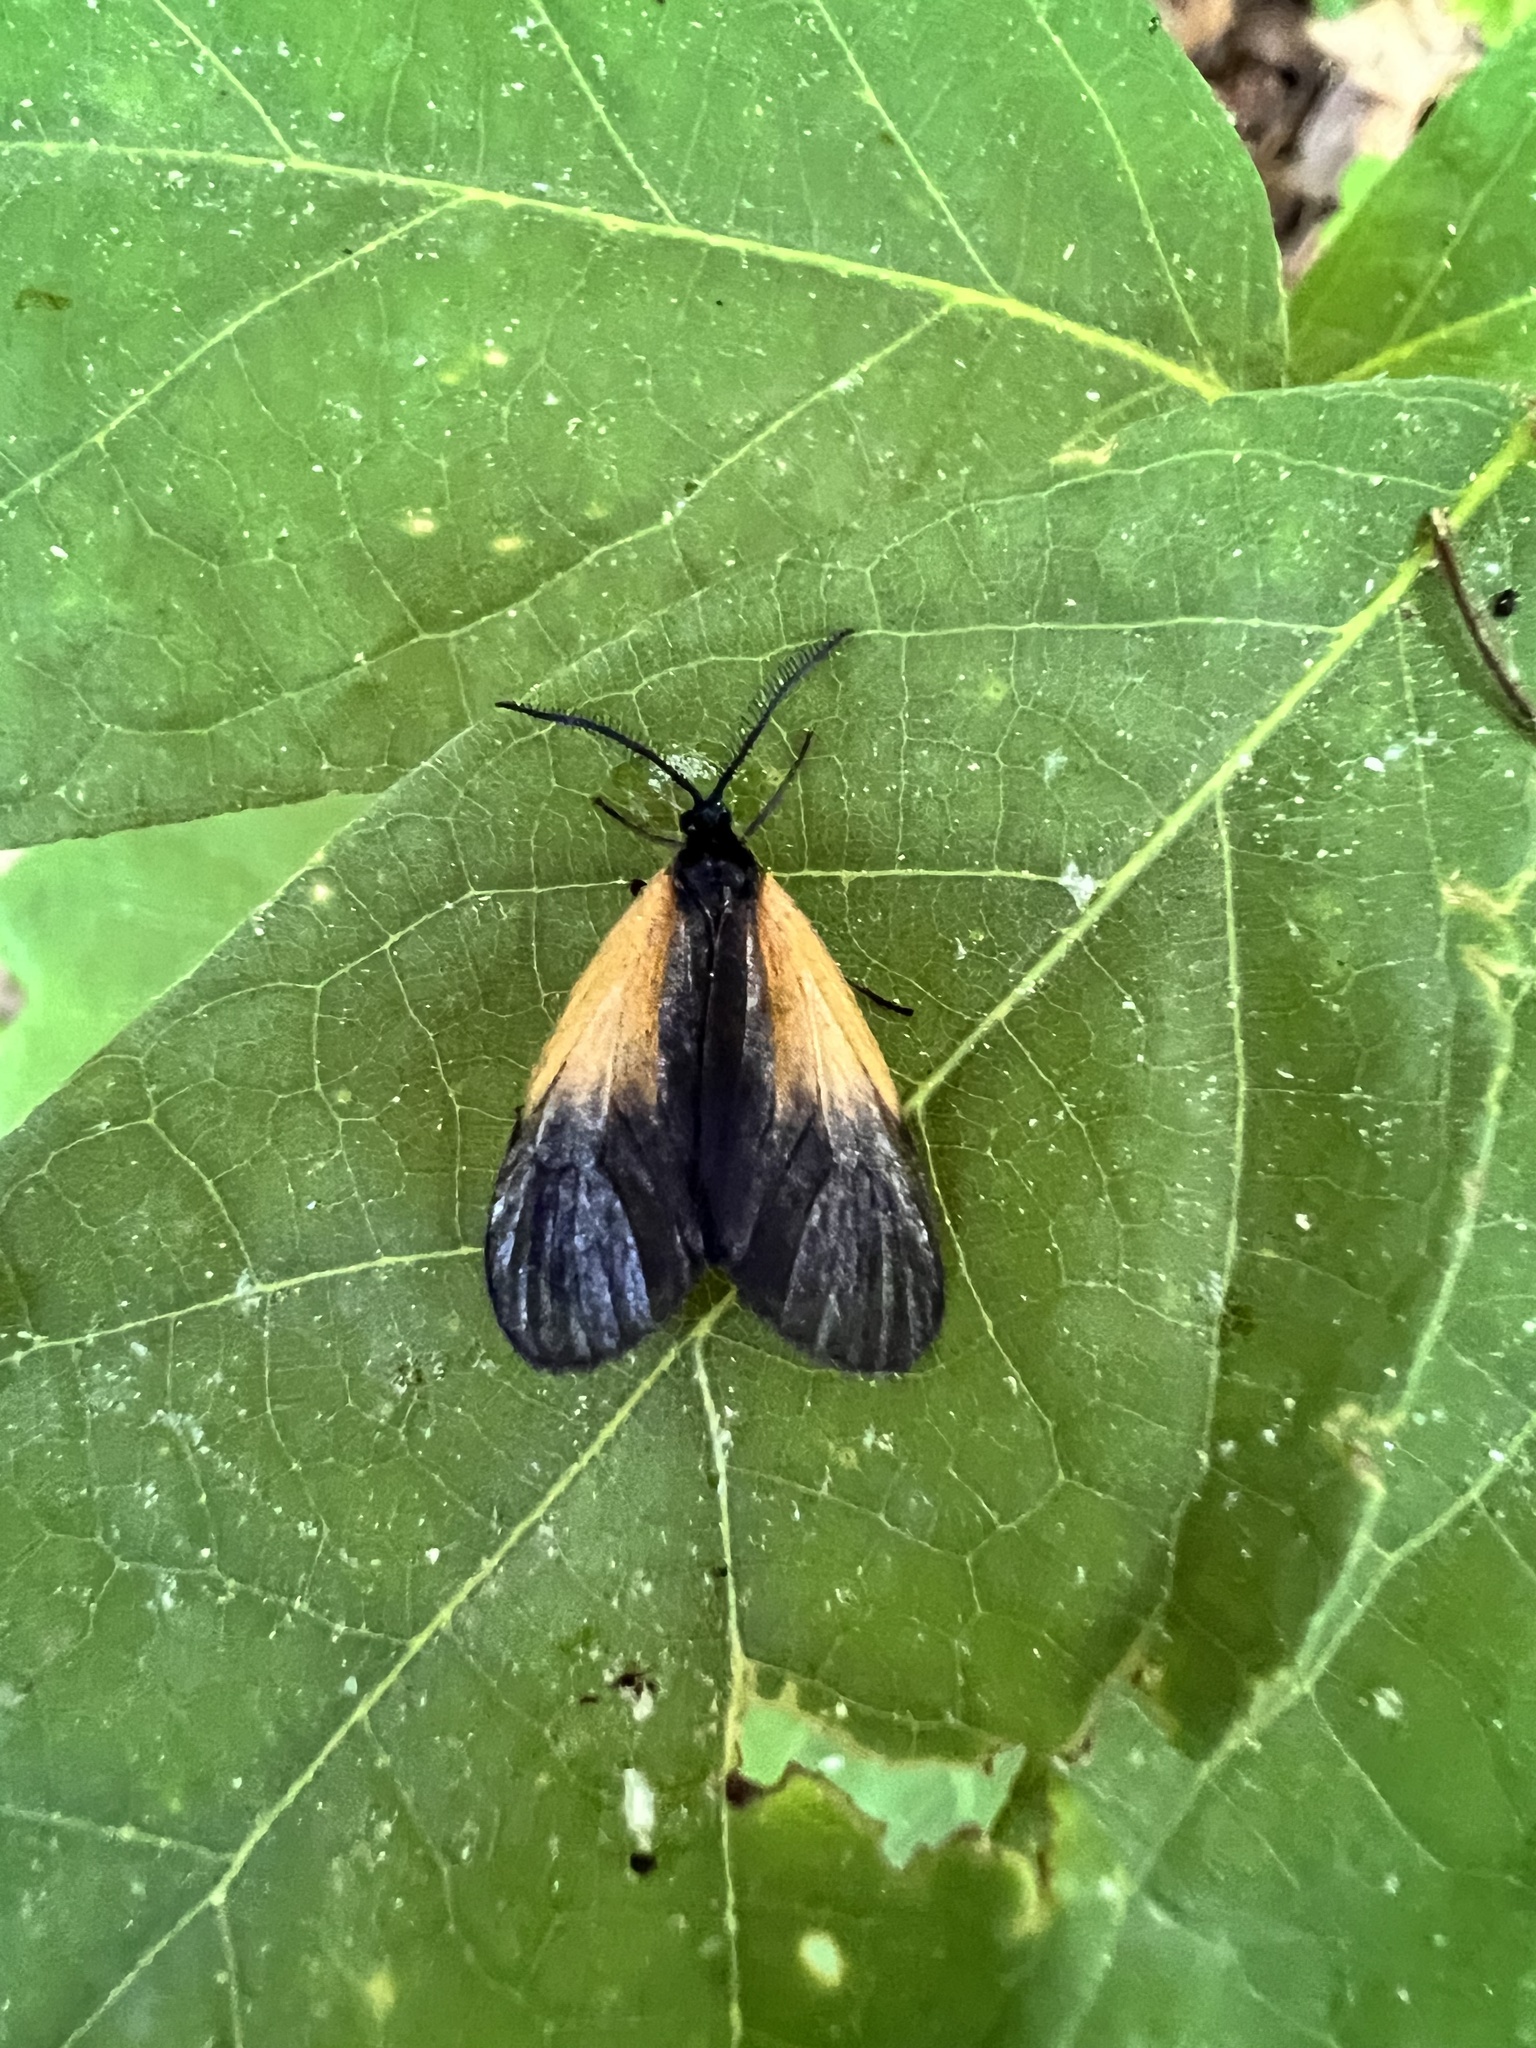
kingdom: Animalia
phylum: Arthropoda
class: Insecta
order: Lepidoptera
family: Zygaenidae
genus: Malthaca
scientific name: Malthaca dimidiata
